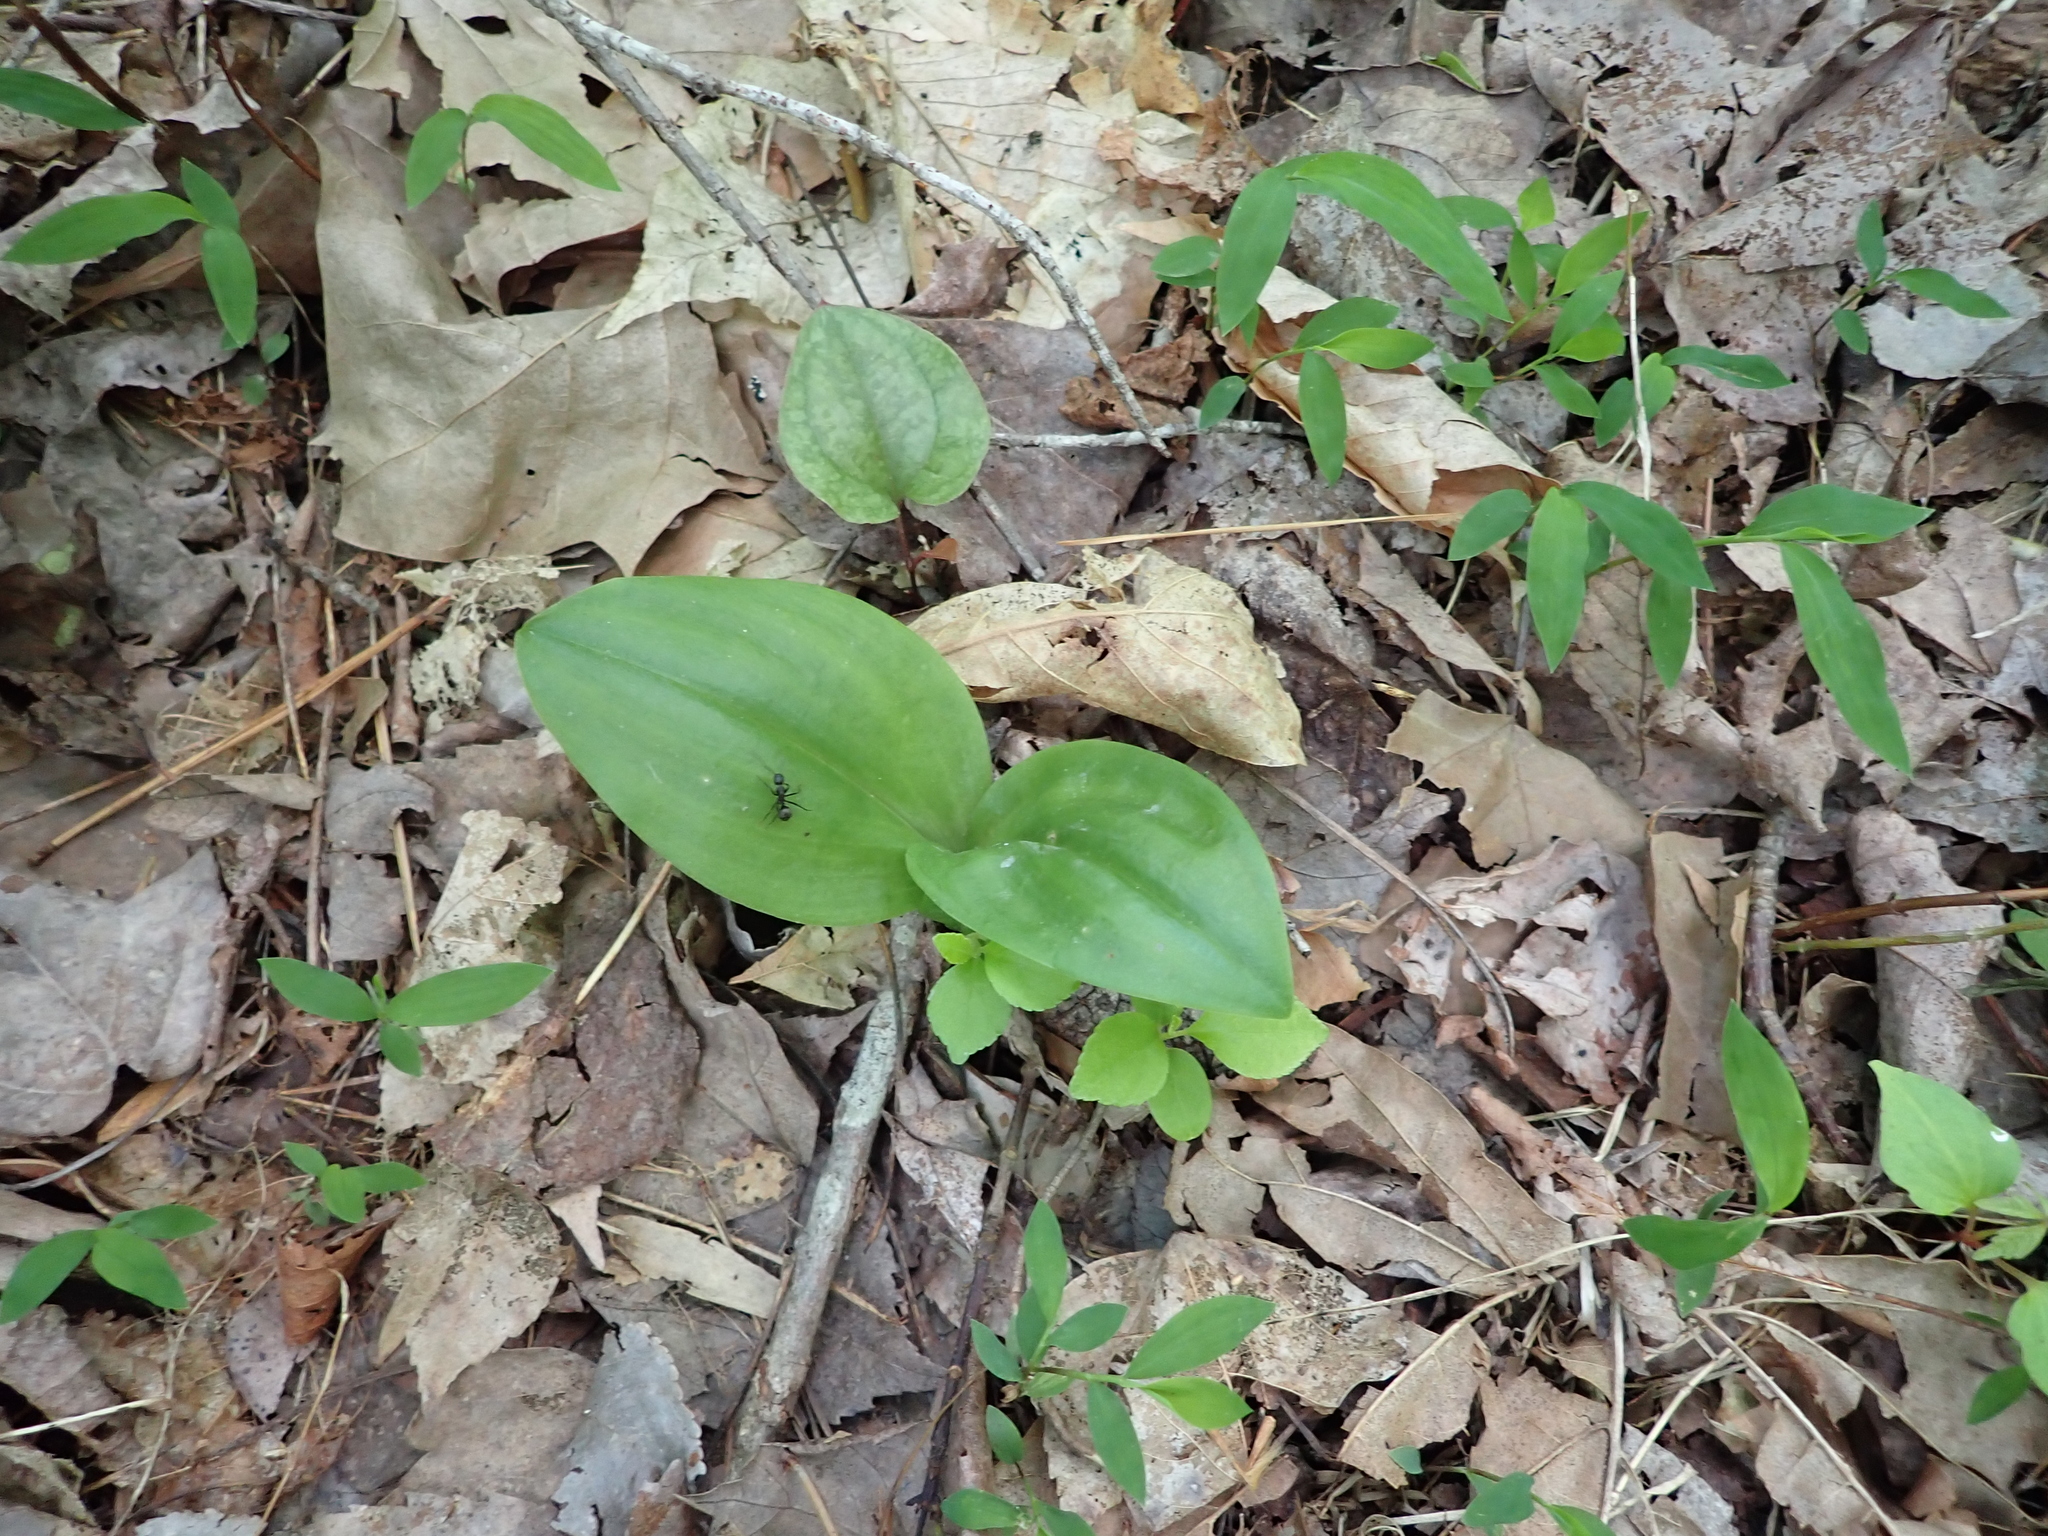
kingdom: Plantae
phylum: Tracheophyta
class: Liliopsida
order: Asparagales
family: Orchidaceae
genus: Liparis
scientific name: Liparis liliifolia
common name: Brown wide-lip orchid
